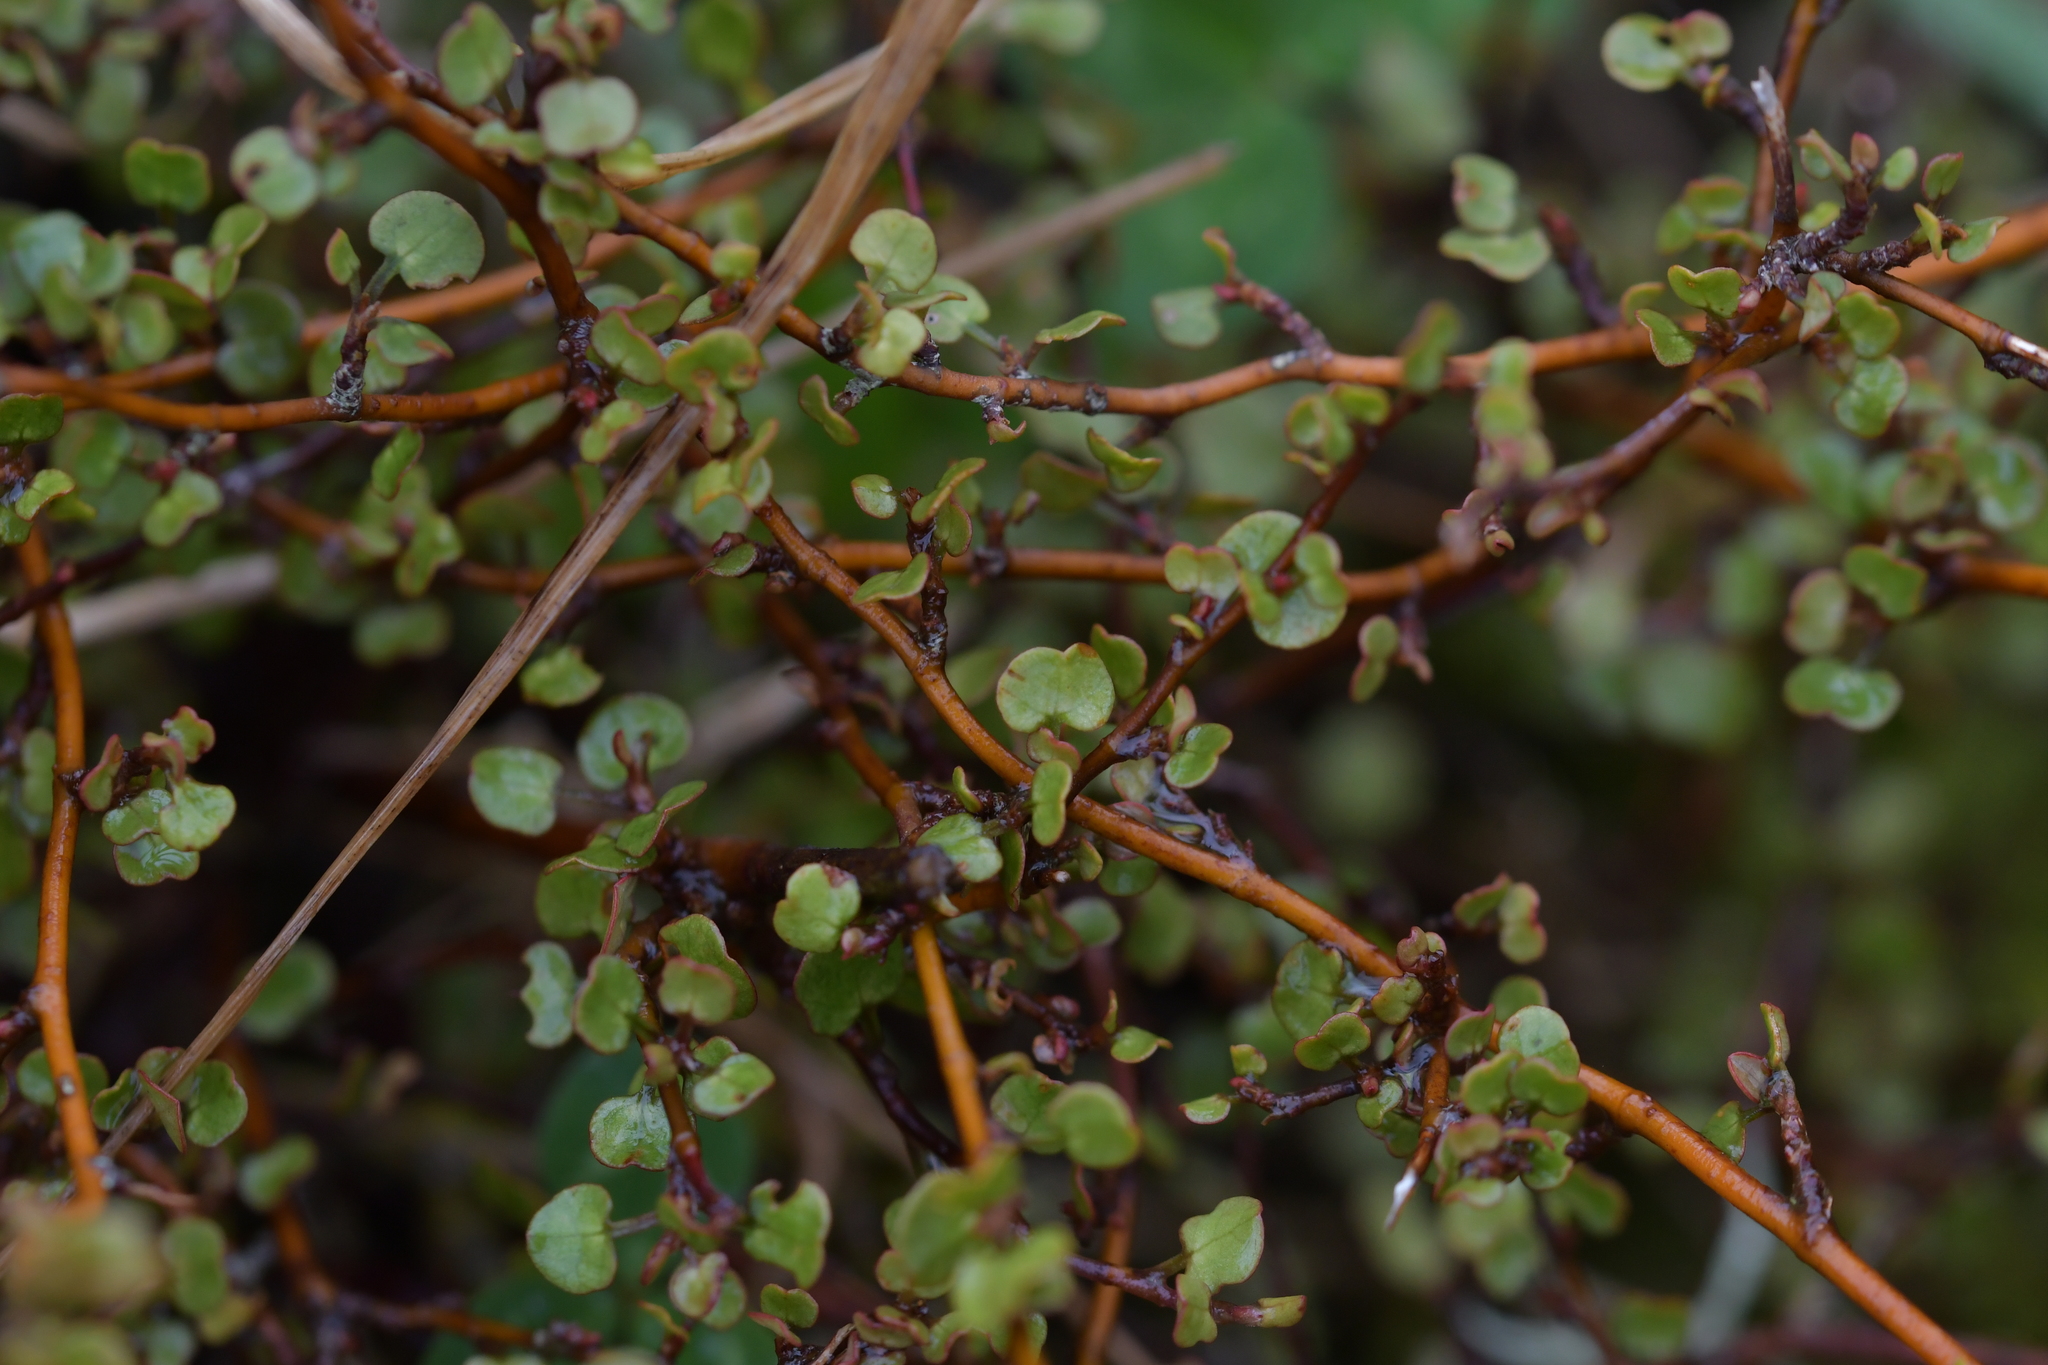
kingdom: Plantae
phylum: Tracheophyta
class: Magnoliopsida
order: Caryophyllales
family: Polygonaceae
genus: Muehlenbeckia
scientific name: Muehlenbeckia complexa
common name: Wireplant
